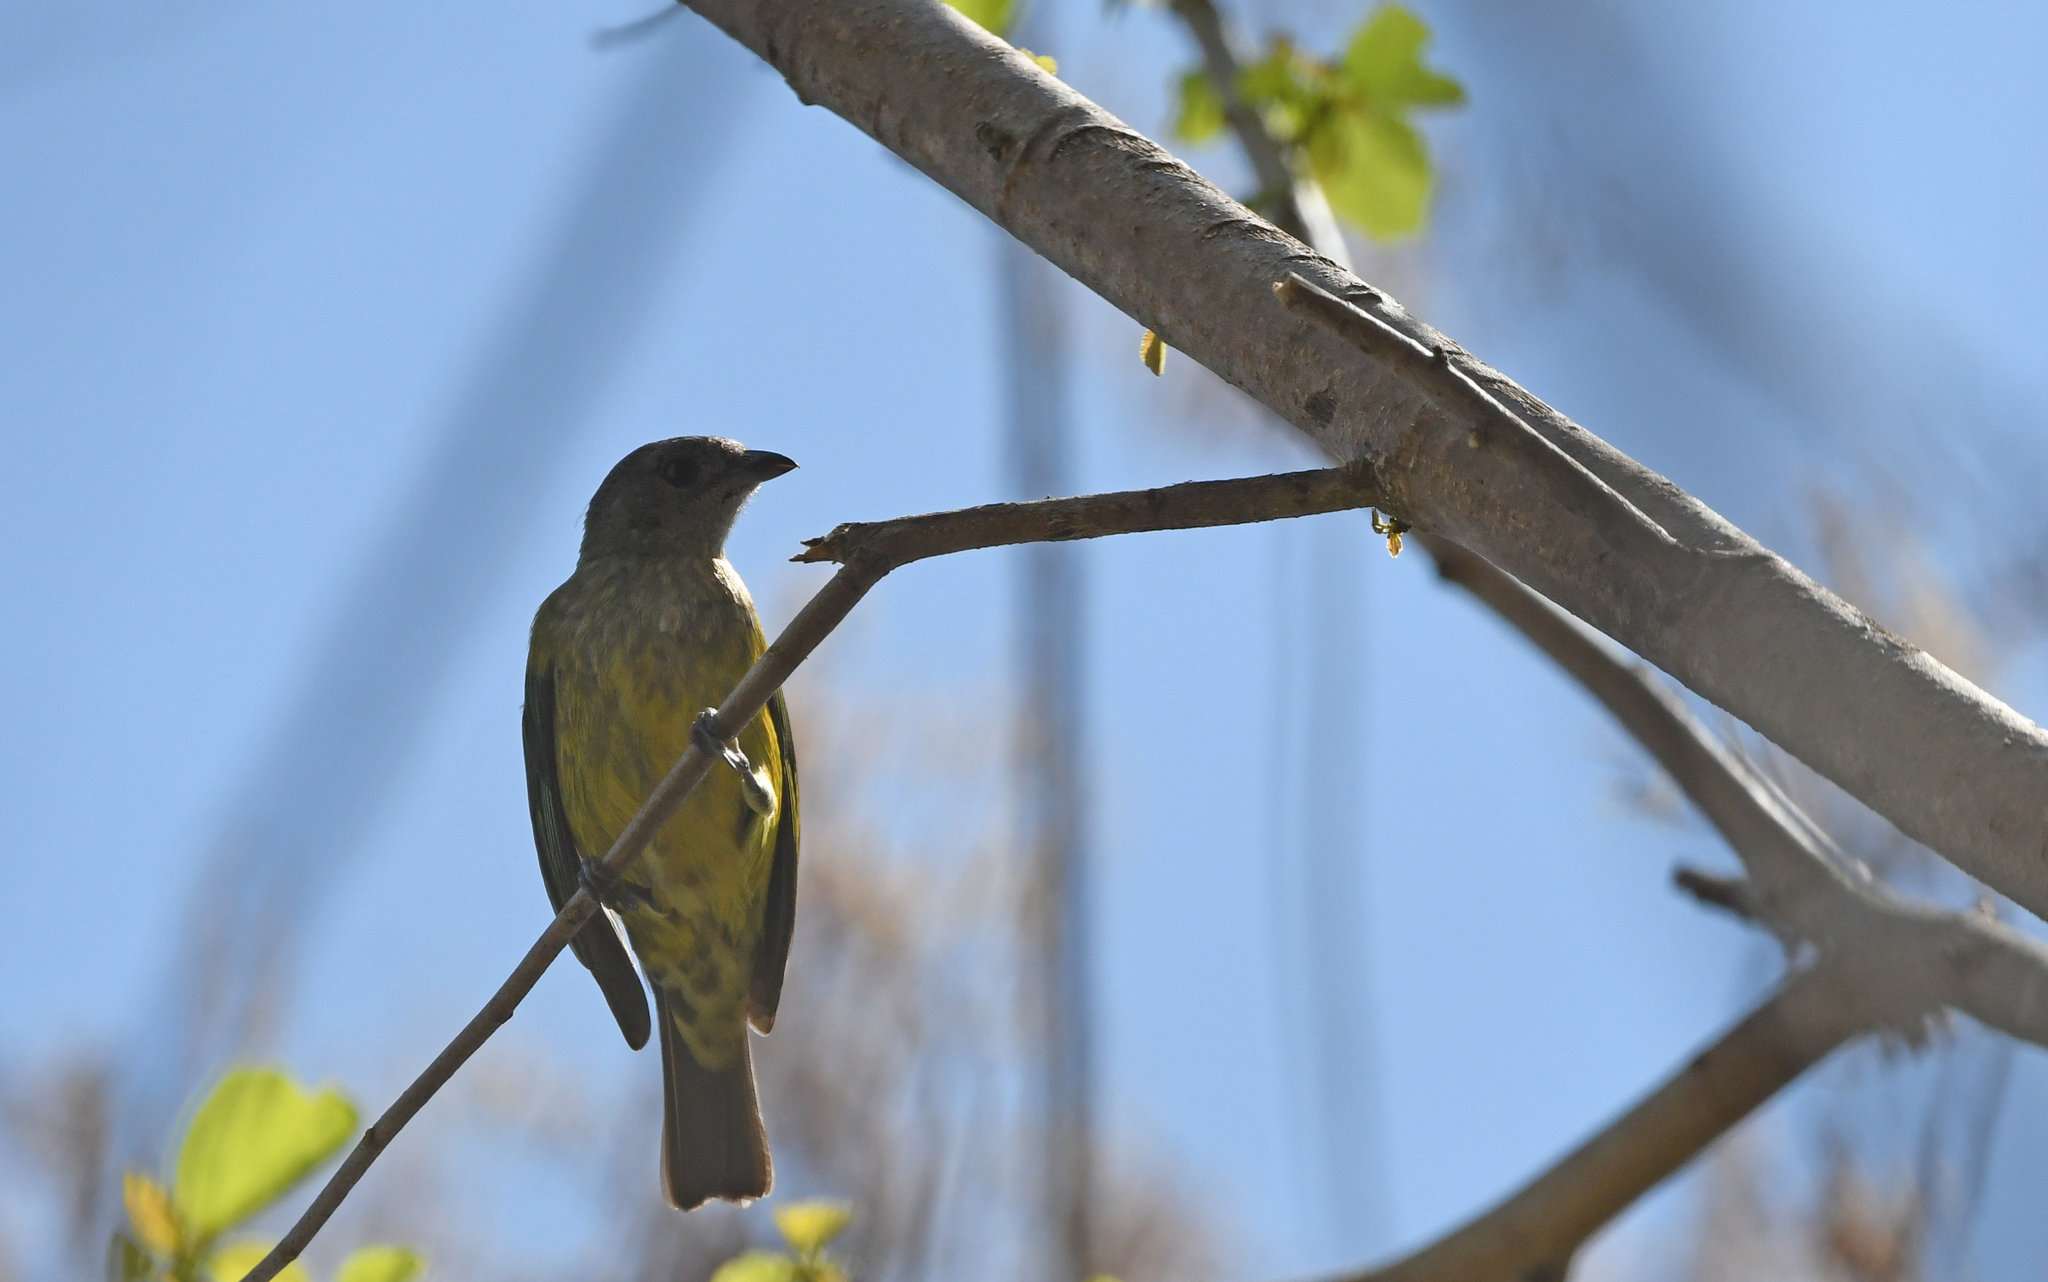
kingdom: Animalia
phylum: Chordata
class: Aves
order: Passeriformes
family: Thraupidae
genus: Stilpnia
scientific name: Stilpnia cyanoptera
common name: Black-headed tanager
